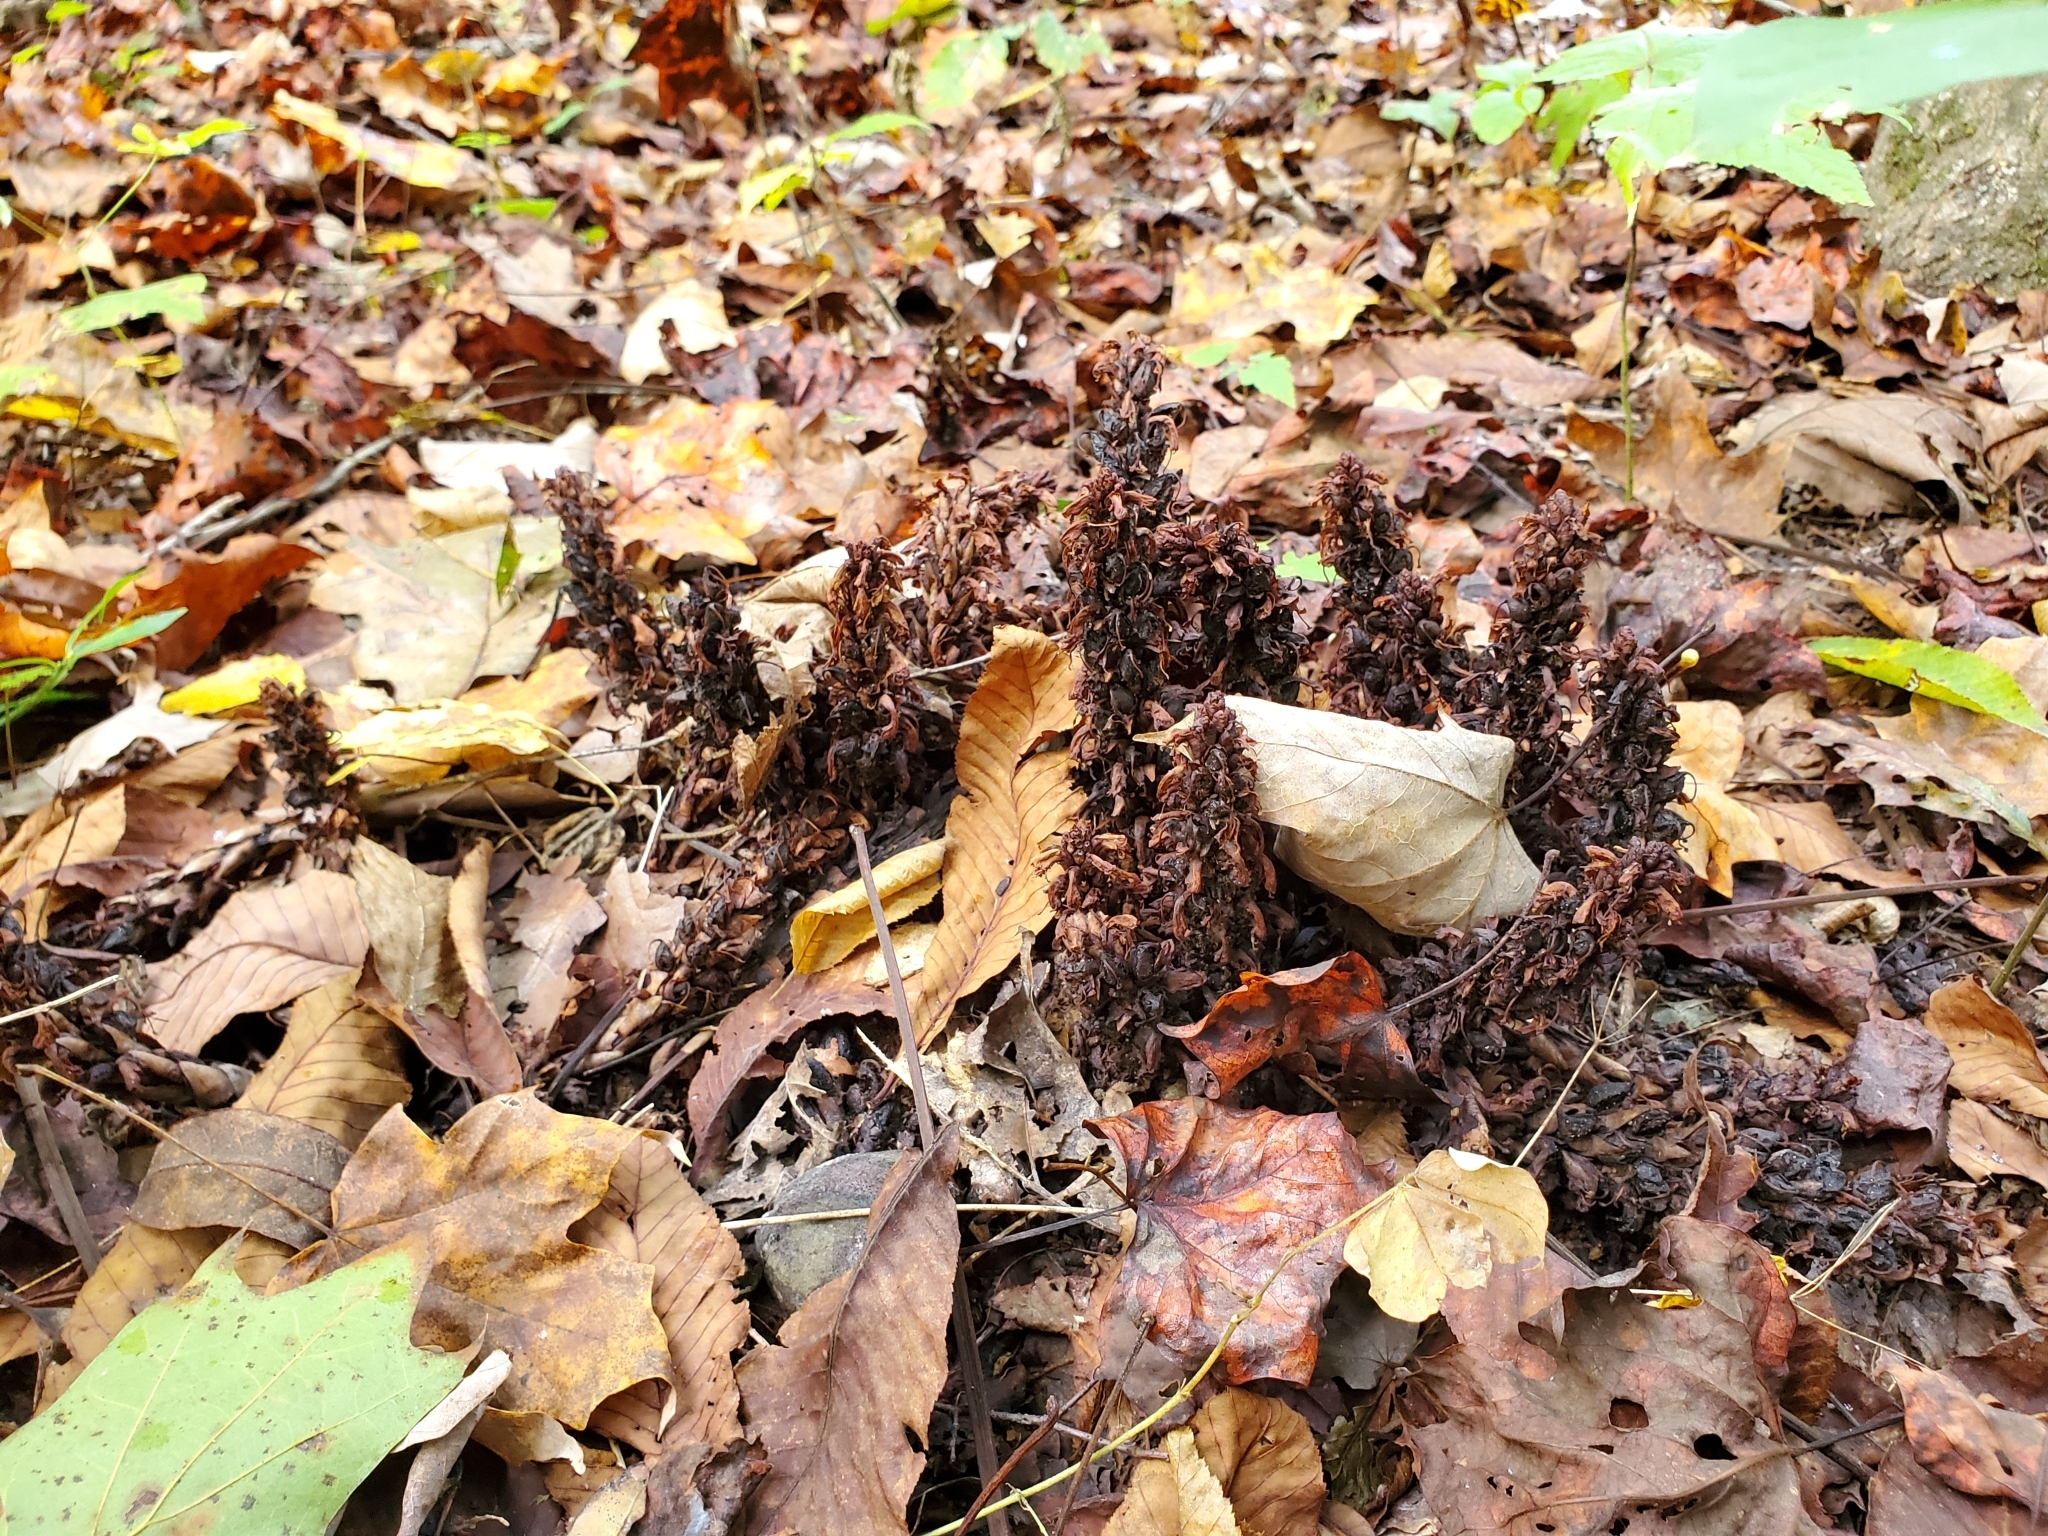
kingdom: Plantae
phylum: Tracheophyta
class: Magnoliopsida
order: Lamiales
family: Orobanchaceae
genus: Conopholis
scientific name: Conopholis americana
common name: American cancer-root
